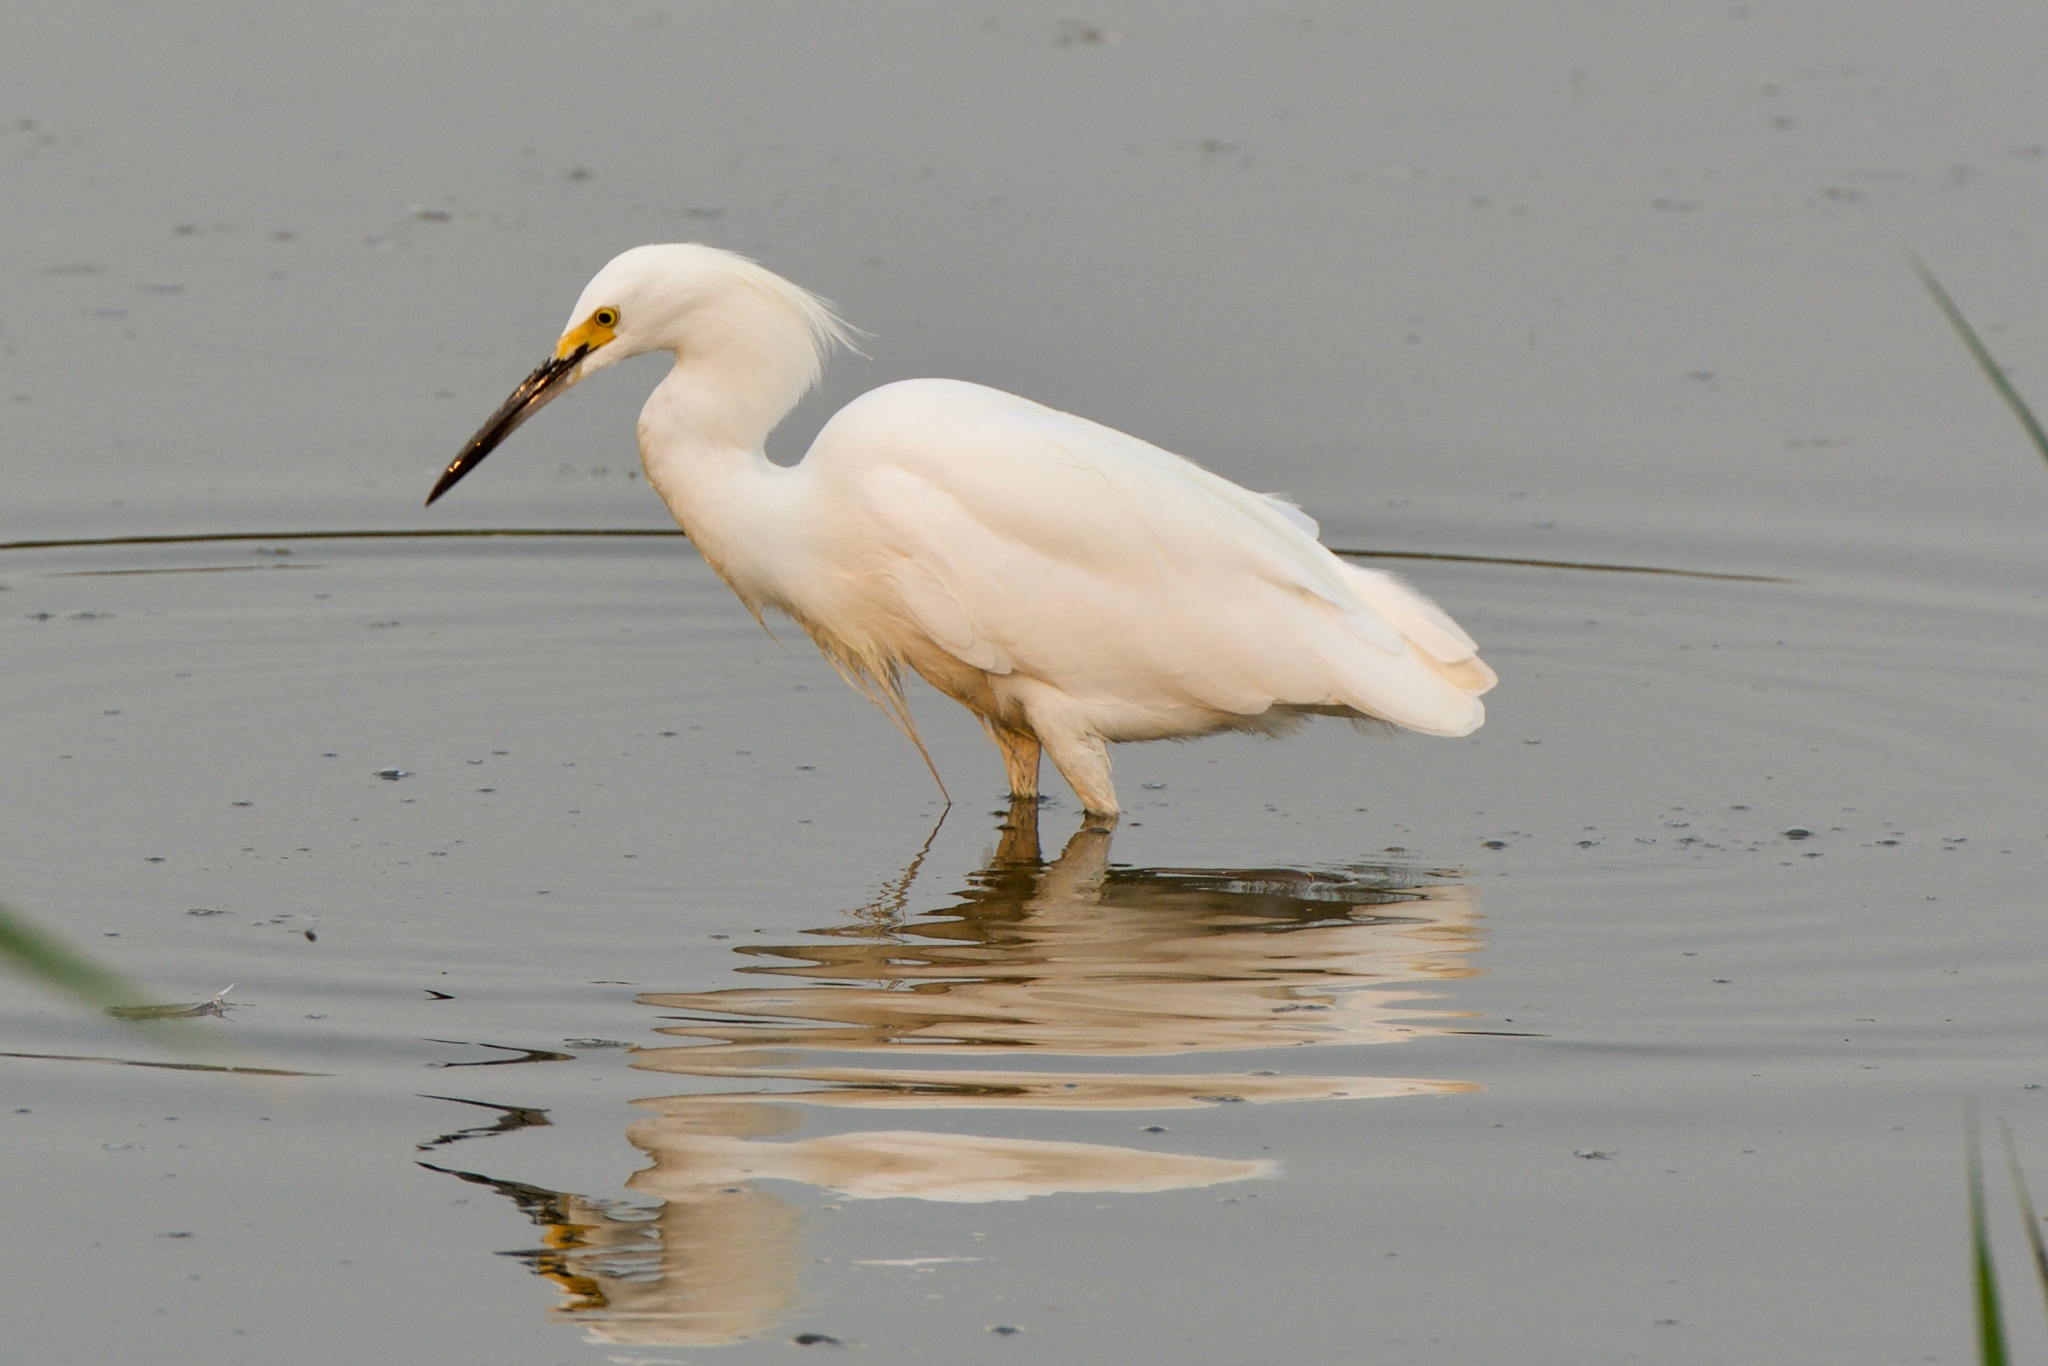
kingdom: Animalia
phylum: Chordata
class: Aves
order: Pelecaniformes
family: Ardeidae
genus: Egretta
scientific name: Egretta thula
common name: Snowy egret
